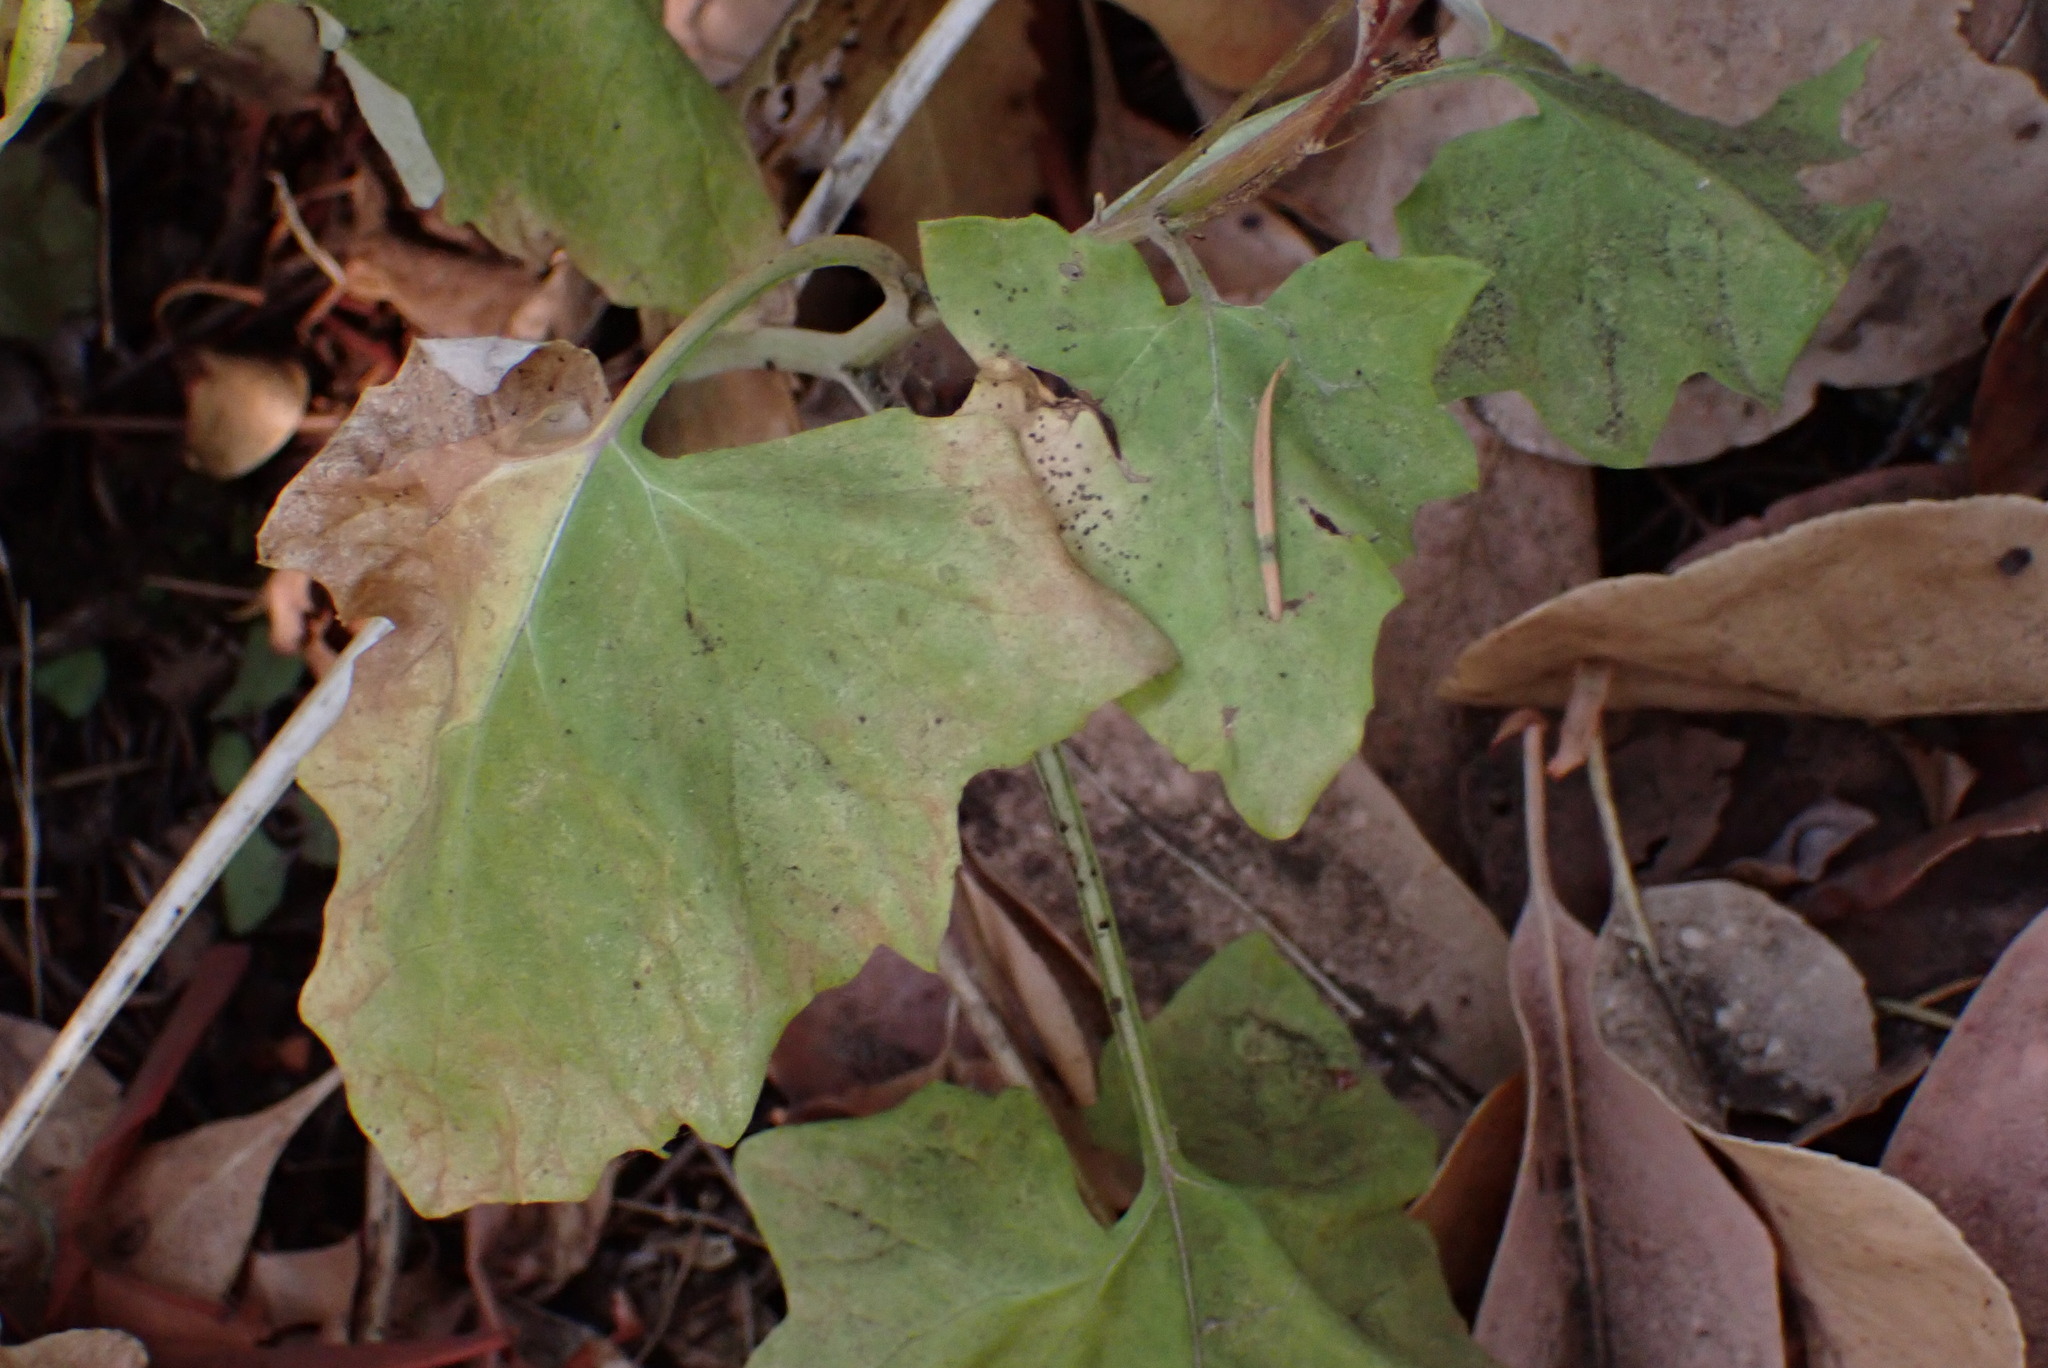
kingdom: Plantae
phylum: Tracheophyta
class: Magnoliopsida
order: Asterales
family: Asteraceae
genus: Adenocaulon
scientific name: Adenocaulon bicolor
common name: Trailplant
